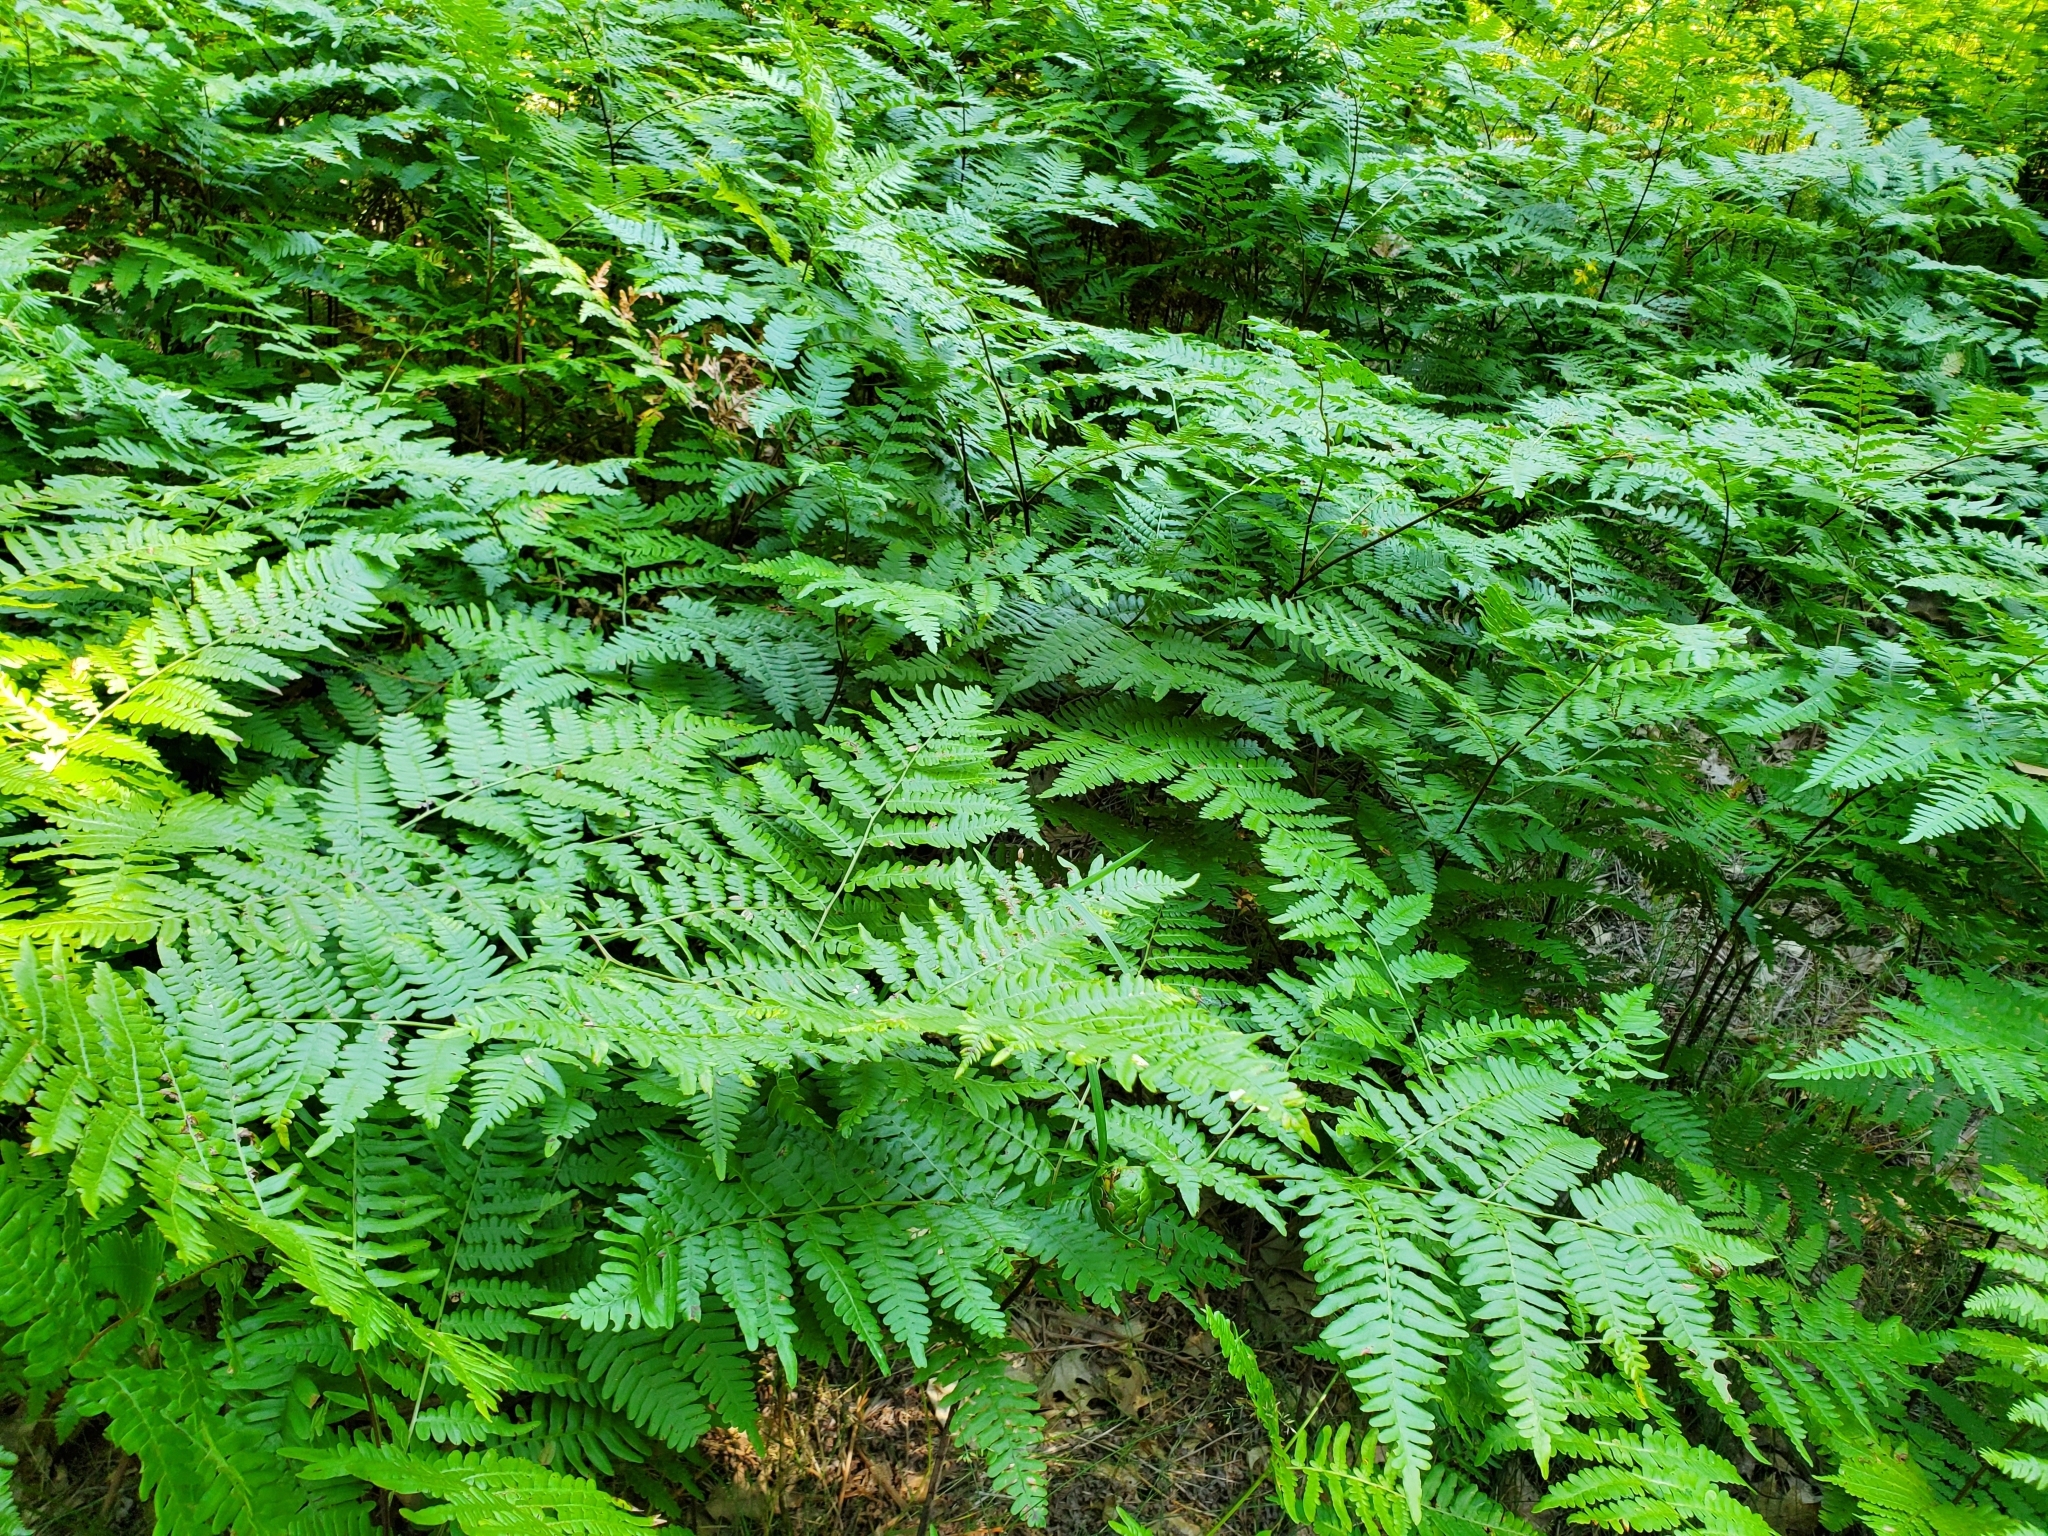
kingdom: Plantae
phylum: Tracheophyta
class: Polypodiopsida
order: Polypodiales
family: Dennstaedtiaceae
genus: Pteridium
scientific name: Pteridium aquilinum
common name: Bracken
